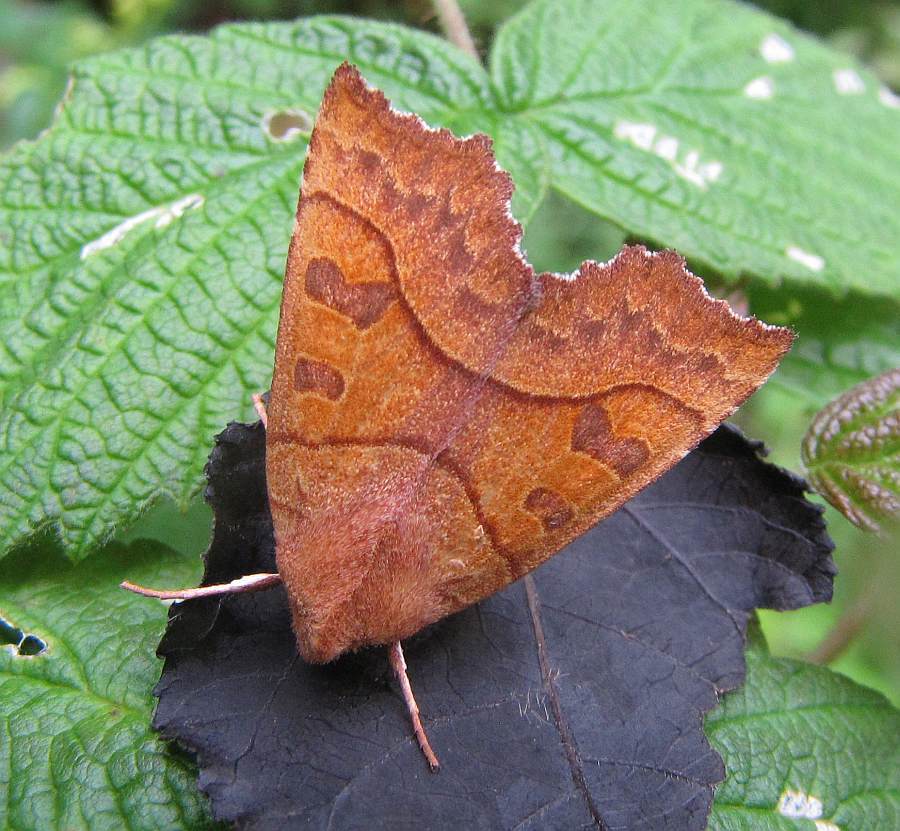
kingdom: Animalia
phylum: Arthropoda
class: Insecta
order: Lepidoptera
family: Noctuidae
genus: Eucirroedia
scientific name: Eucirroedia pampina
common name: Scalloped sallow
